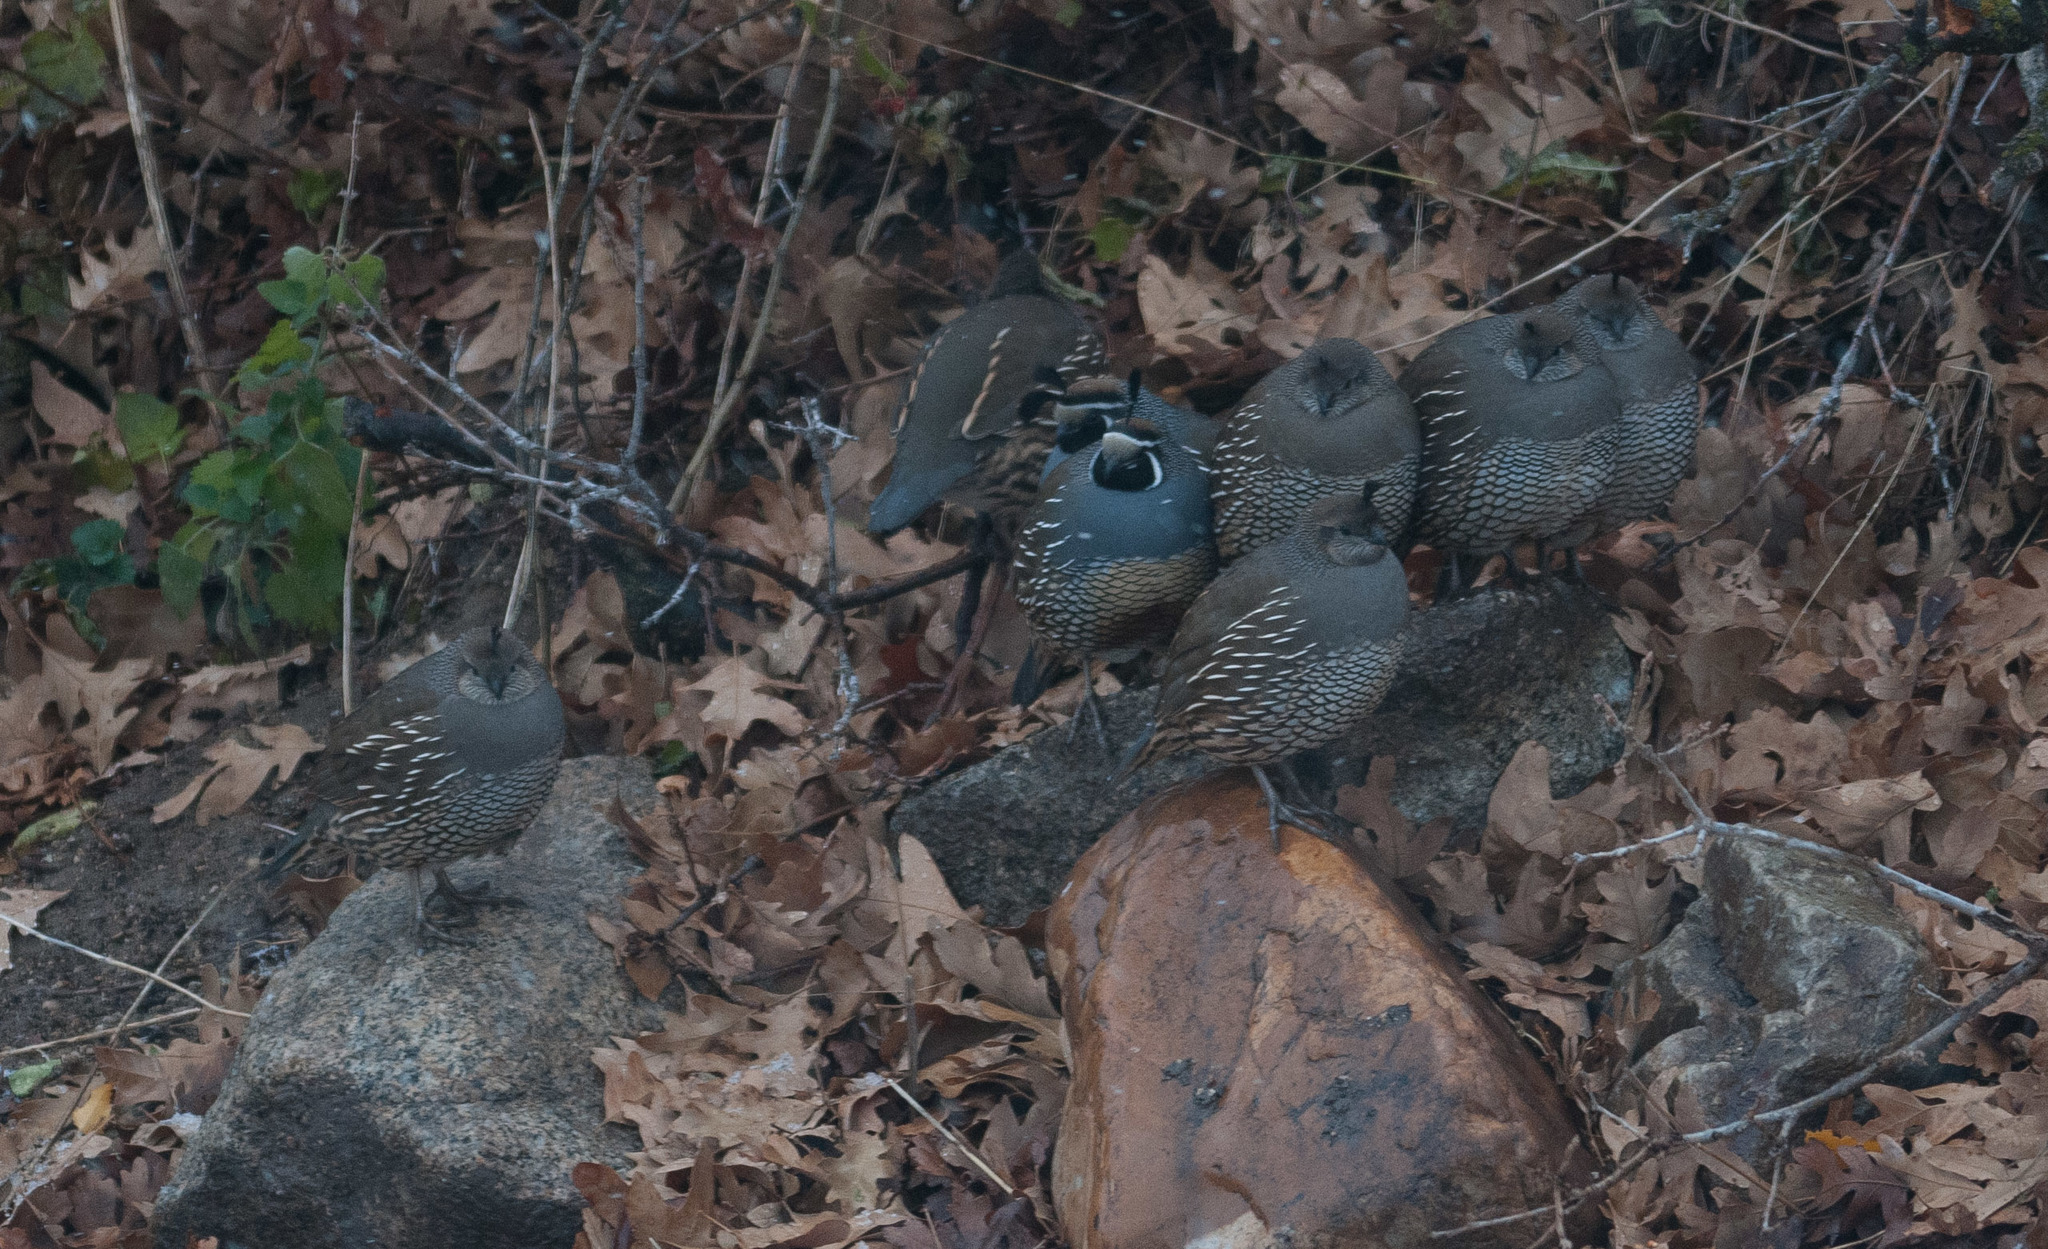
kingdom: Animalia
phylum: Chordata
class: Aves
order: Galliformes
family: Odontophoridae
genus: Callipepla
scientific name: Callipepla californica
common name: California quail
